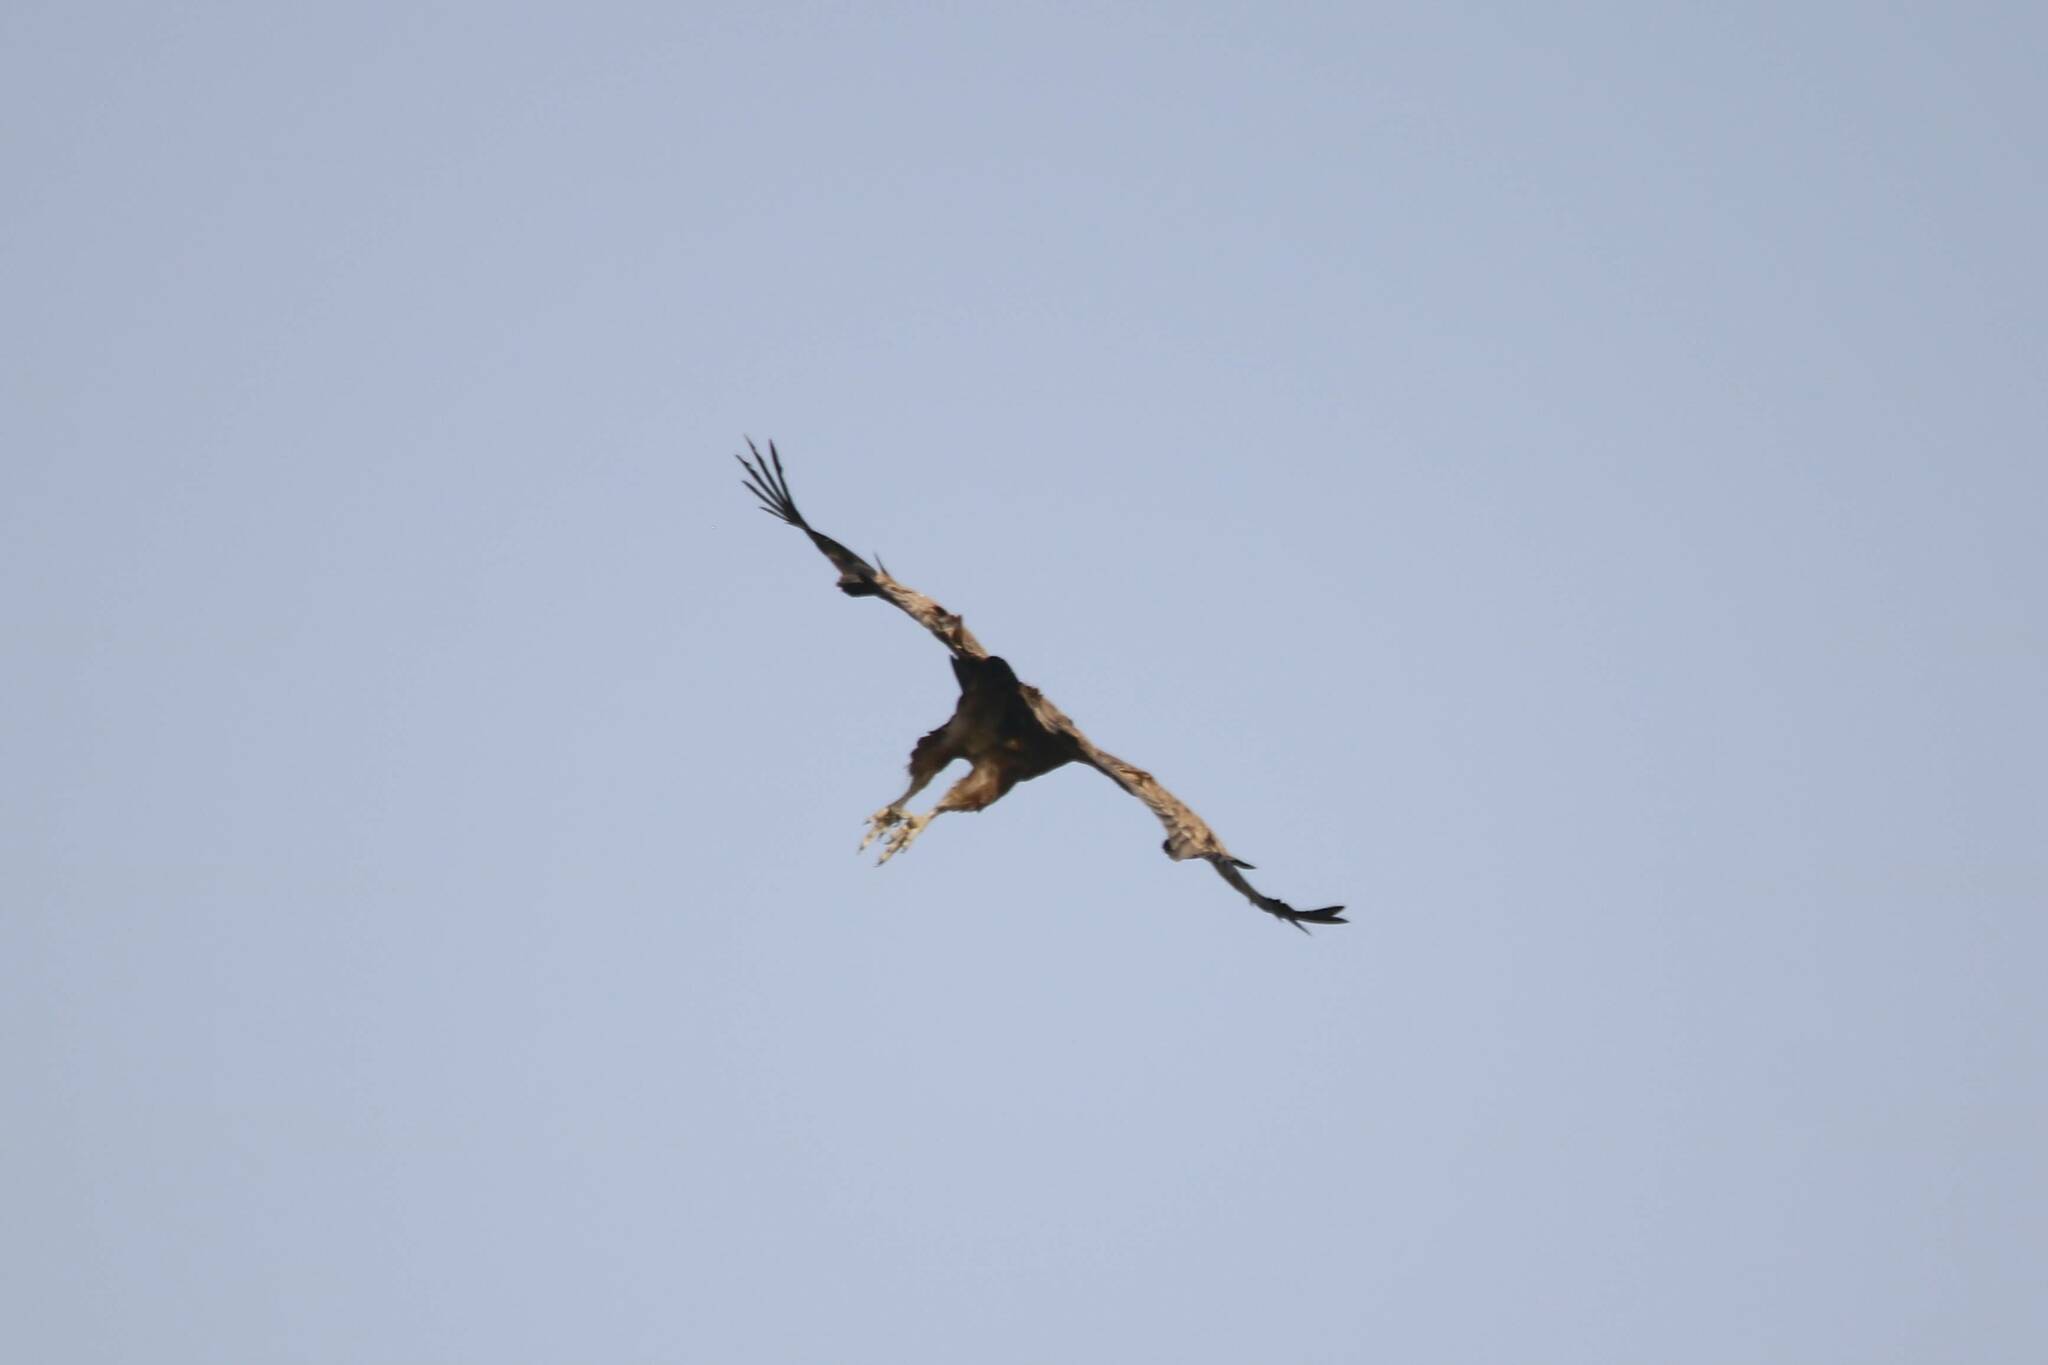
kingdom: Animalia
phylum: Chordata
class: Aves
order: Accipitriformes
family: Accipitridae
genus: Gyps
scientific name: Gyps fulvus
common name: Griffon vulture
